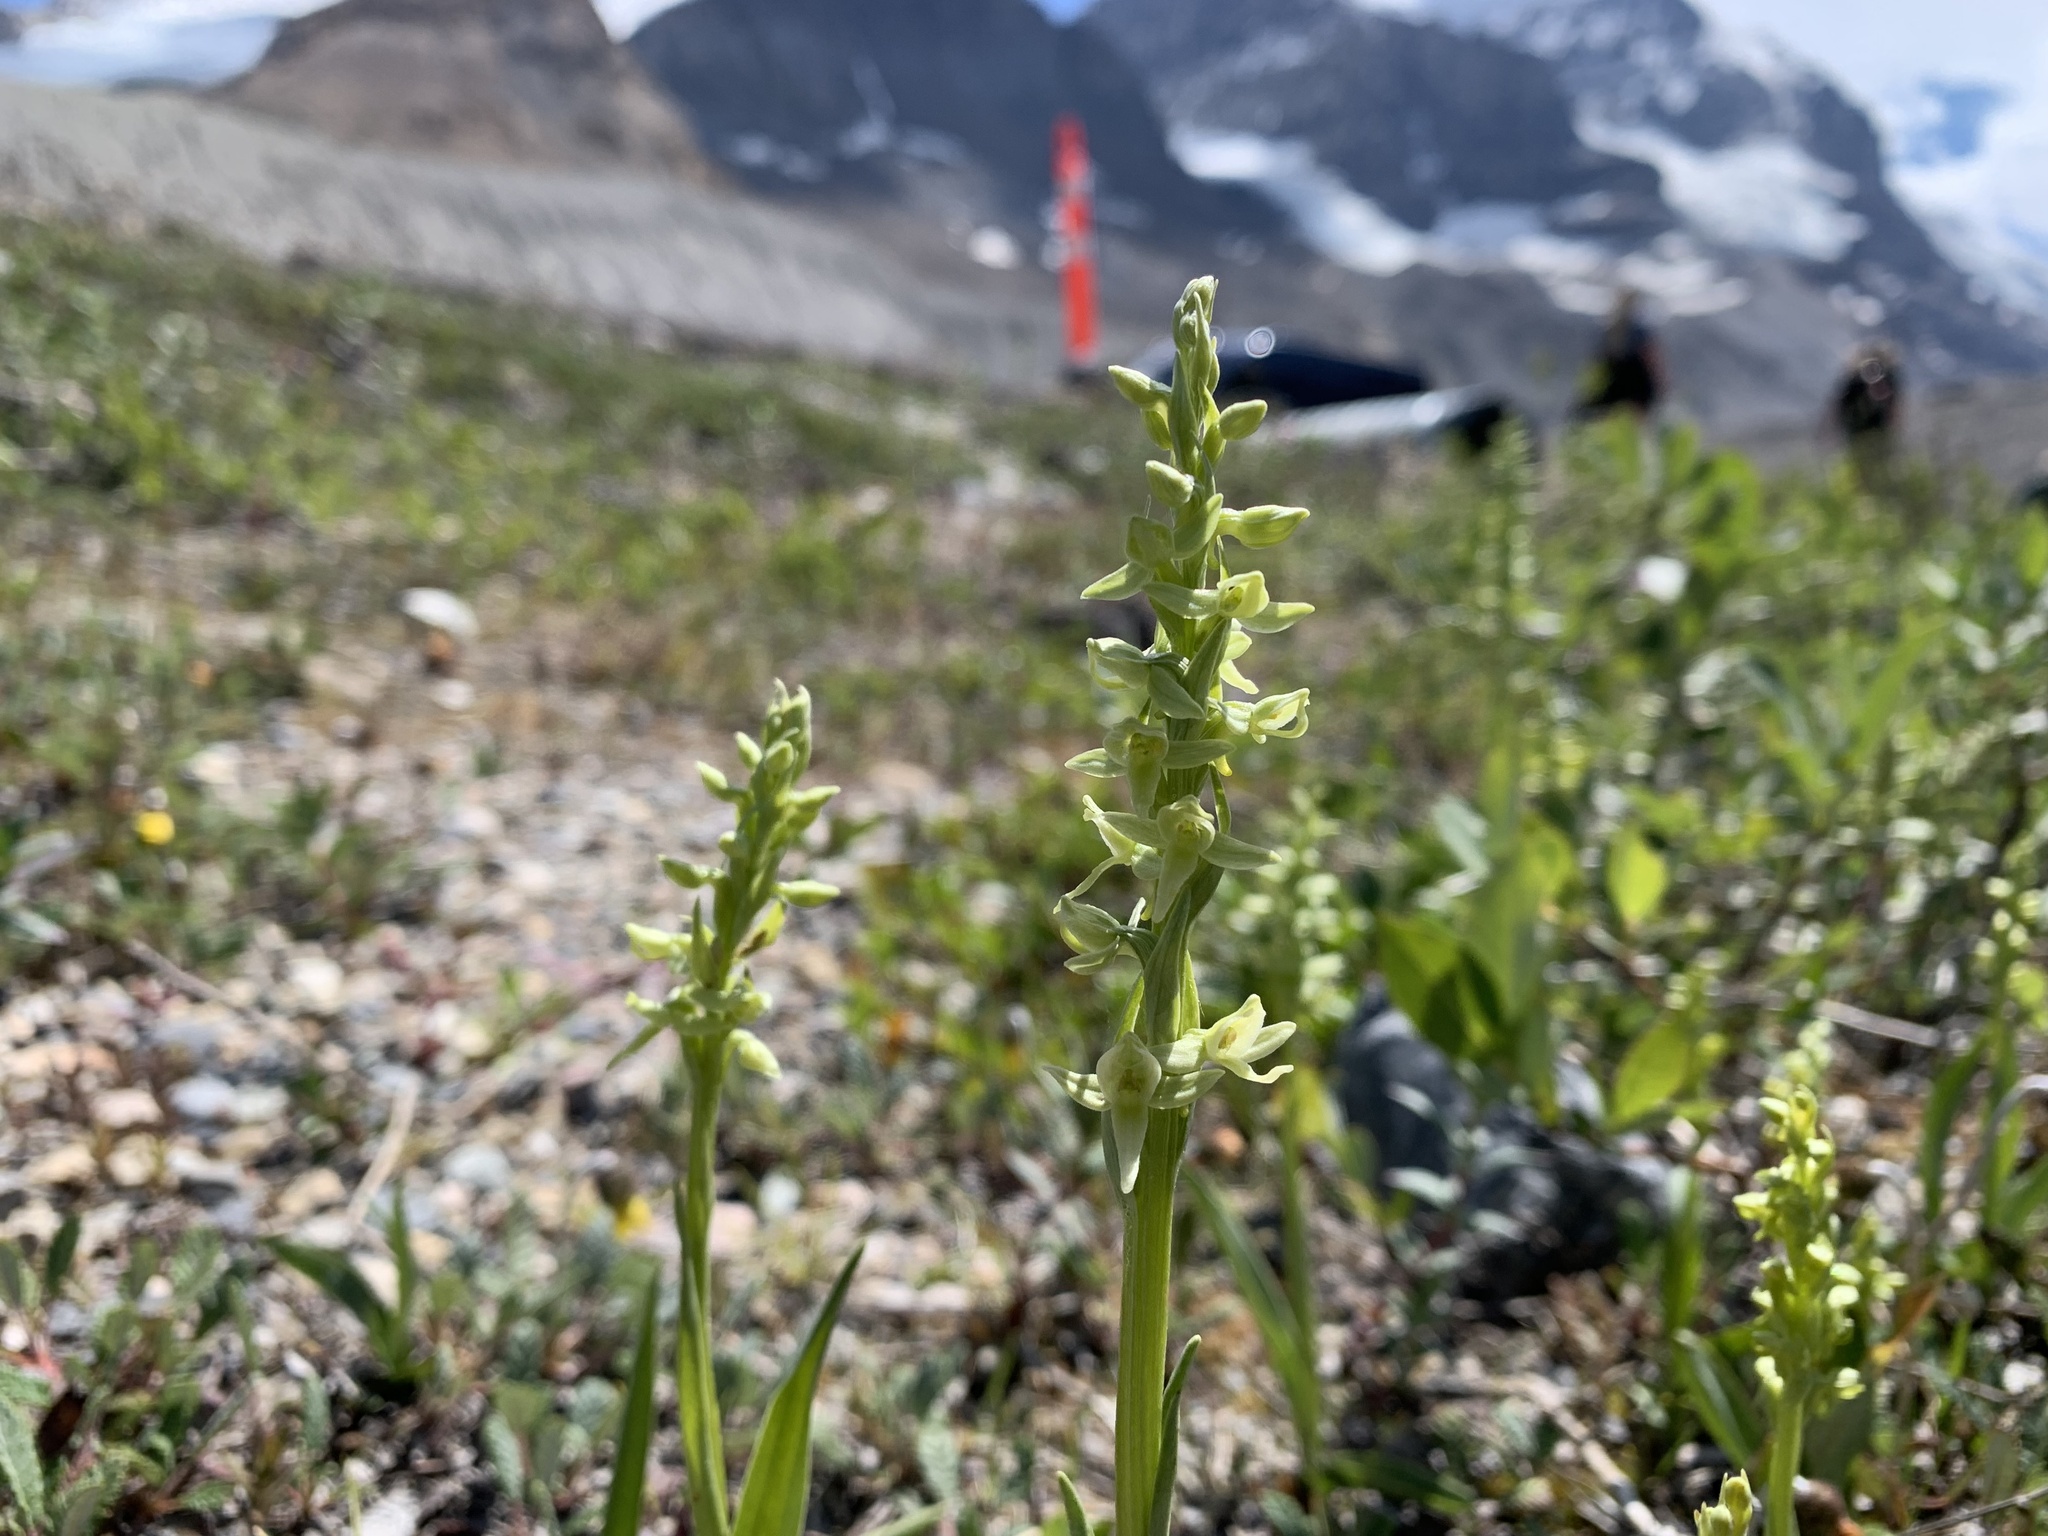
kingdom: Plantae
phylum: Tracheophyta
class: Liliopsida
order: Asparagales
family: Orchidaceae
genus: Platanthera
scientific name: Platanthera huronensis
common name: Fragrant green orchid
